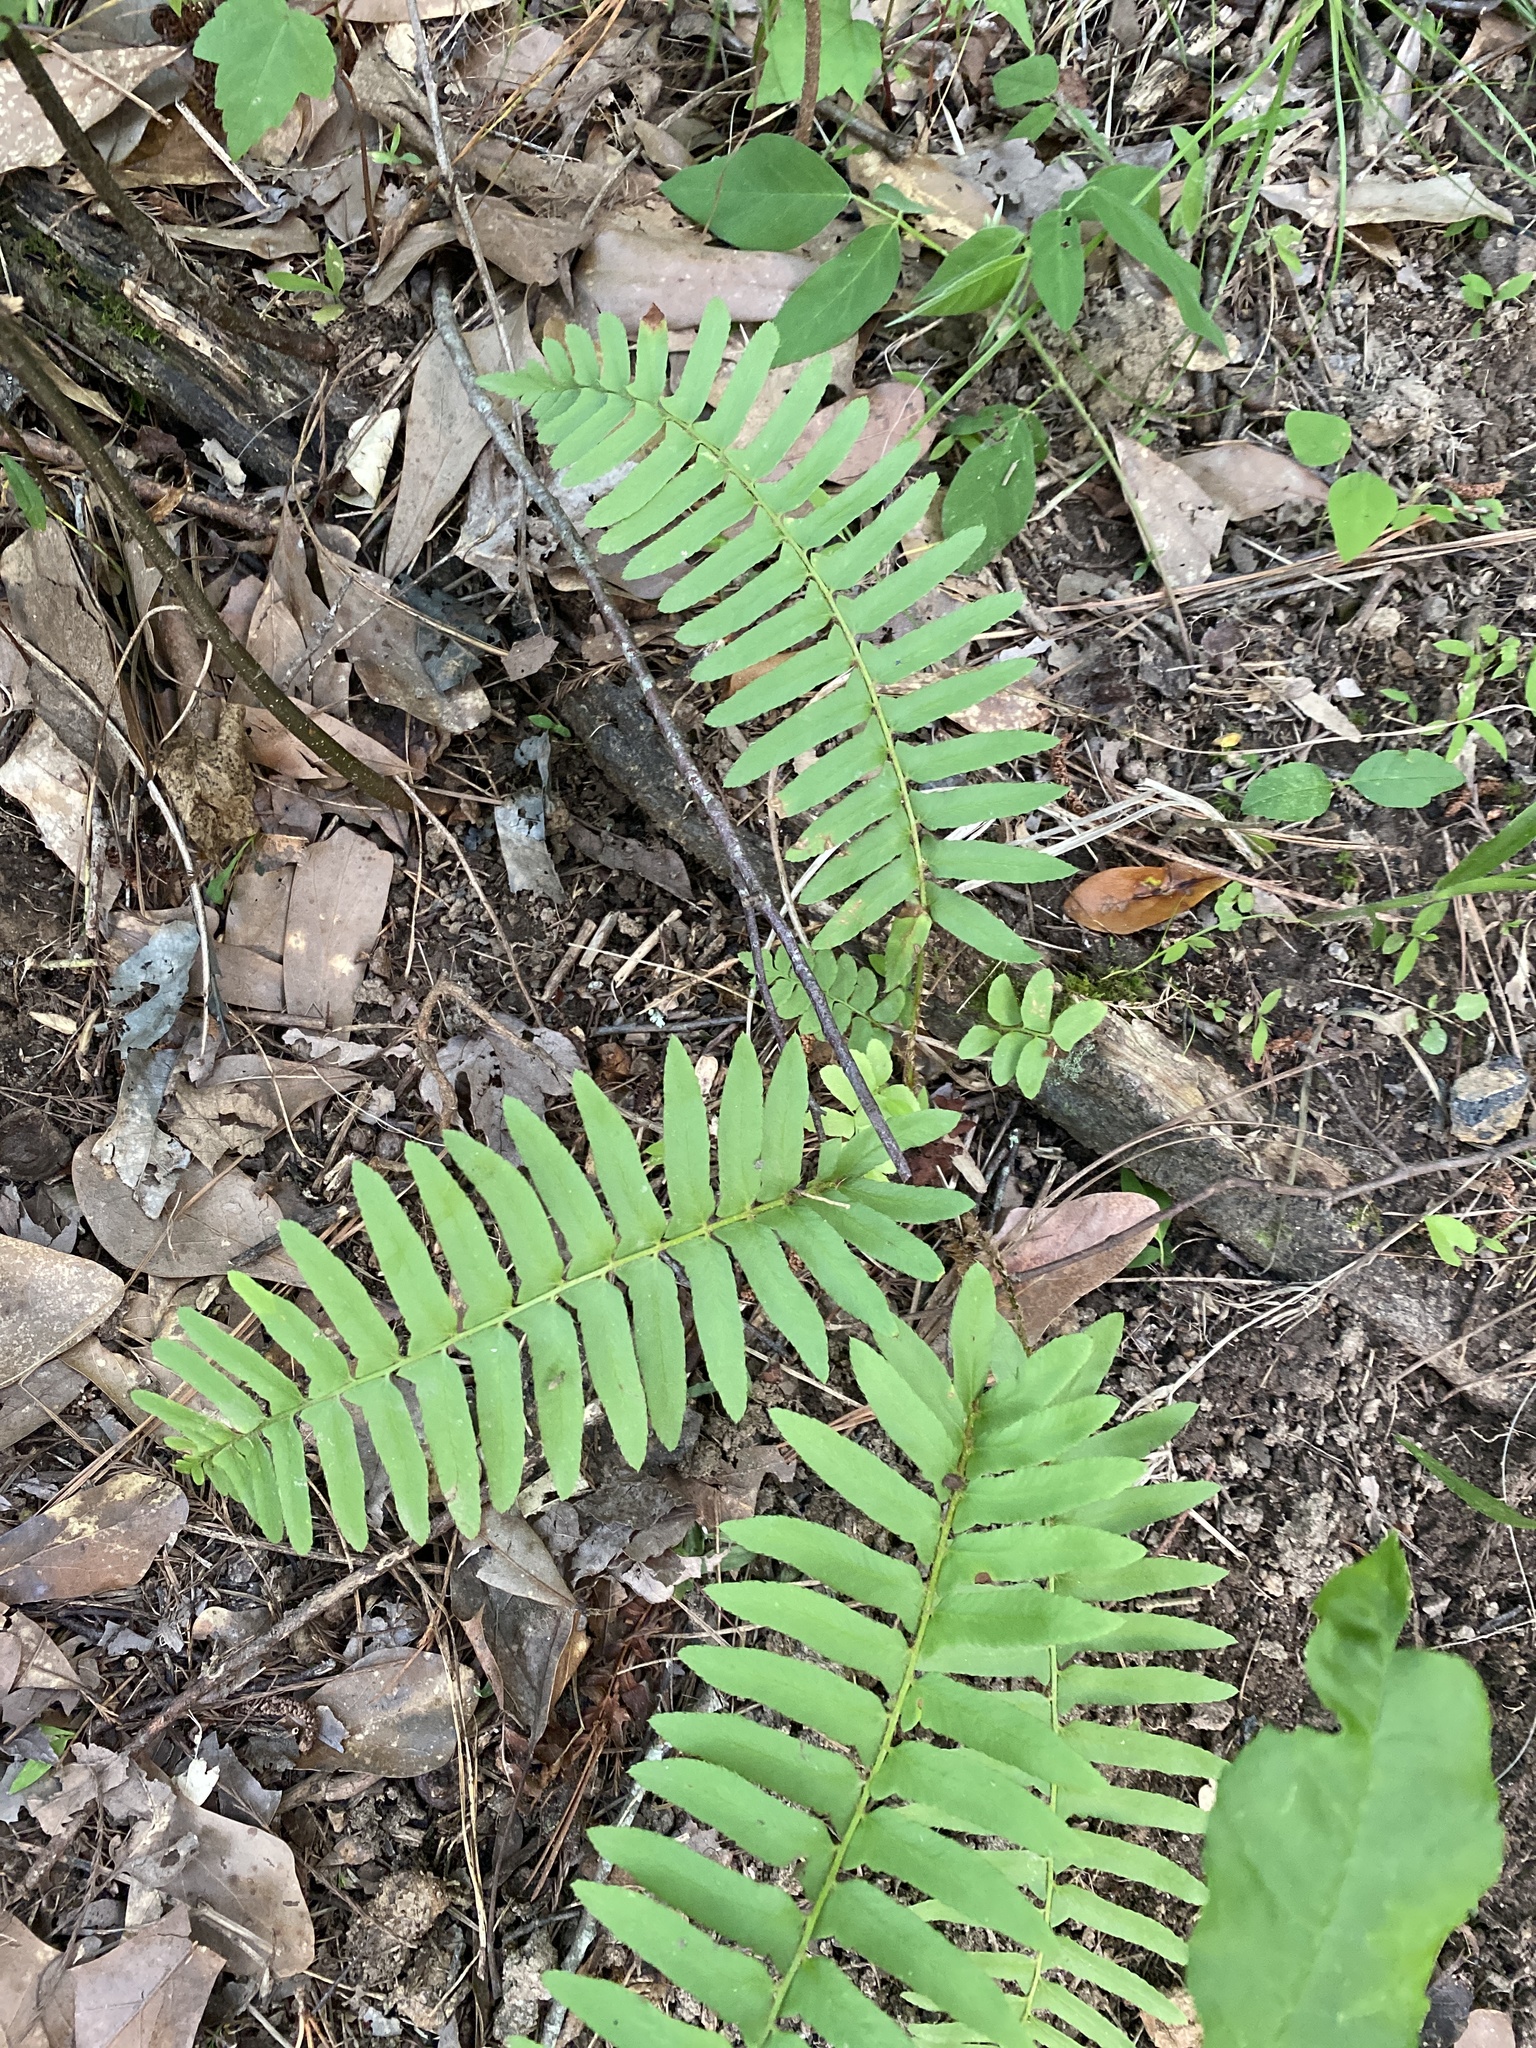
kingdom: Plantae
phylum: Tracheophyta
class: Polypodiopsida
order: Polypodiales
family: Dryopteridaceae
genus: Polystichum
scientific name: Polystichum acrostichoides
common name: Christmas fern
